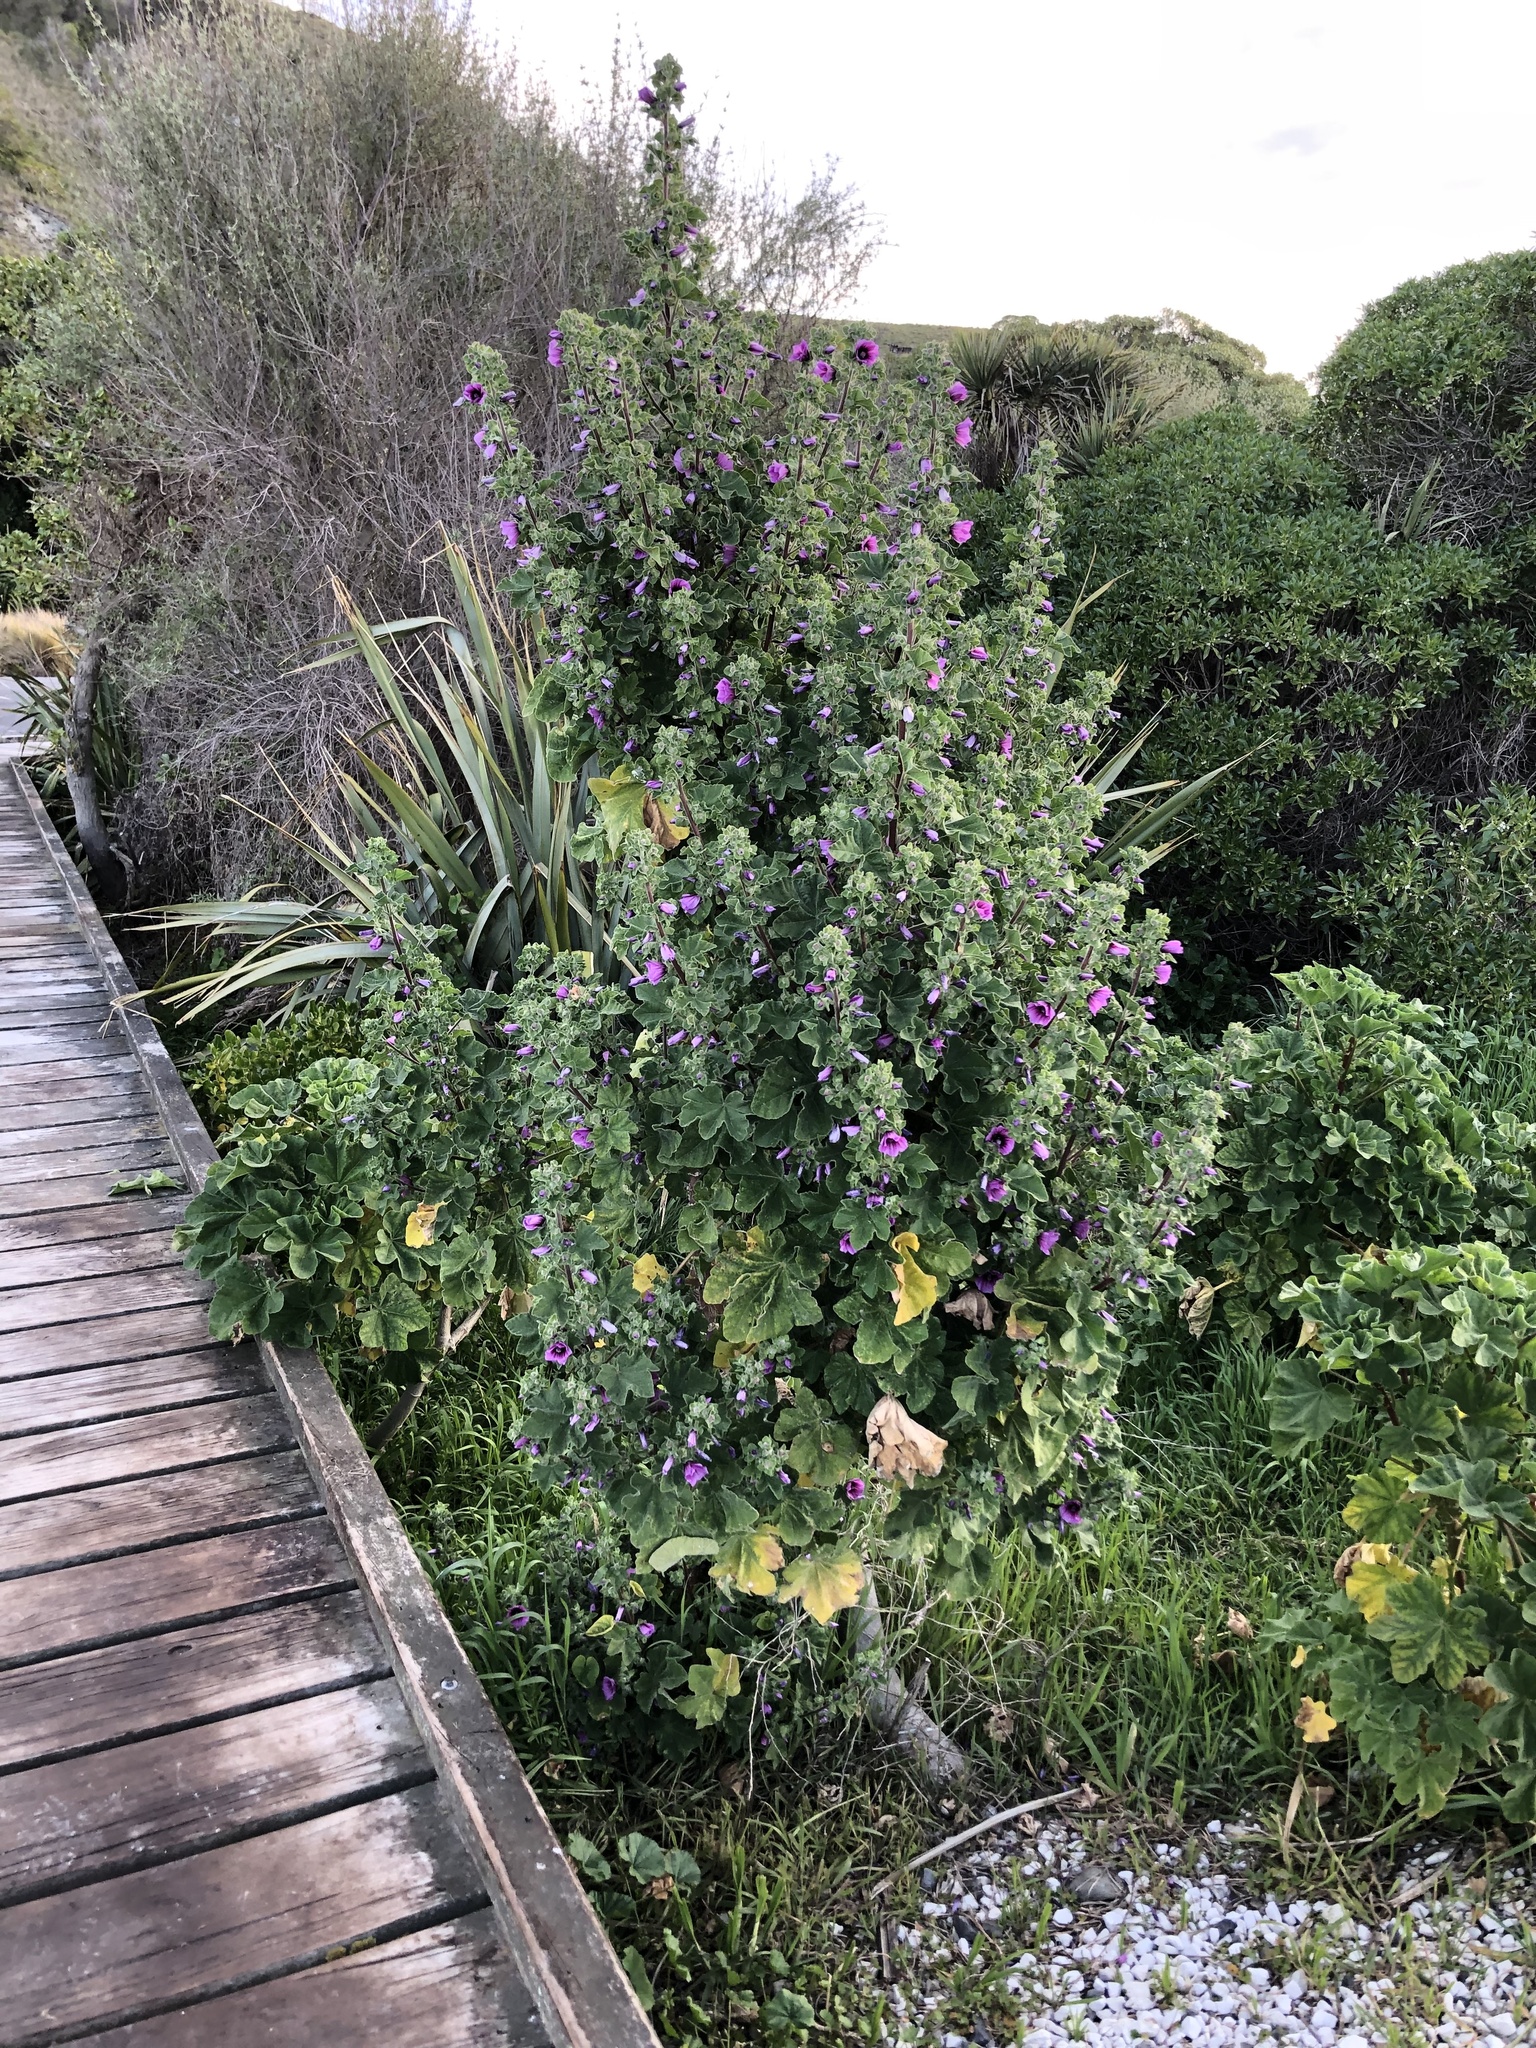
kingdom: Plantae
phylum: Tracheophyta
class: Magnoliopsida
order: Malvales
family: Malvaceae
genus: Malva
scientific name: Malva arborea
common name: Tree mallow
